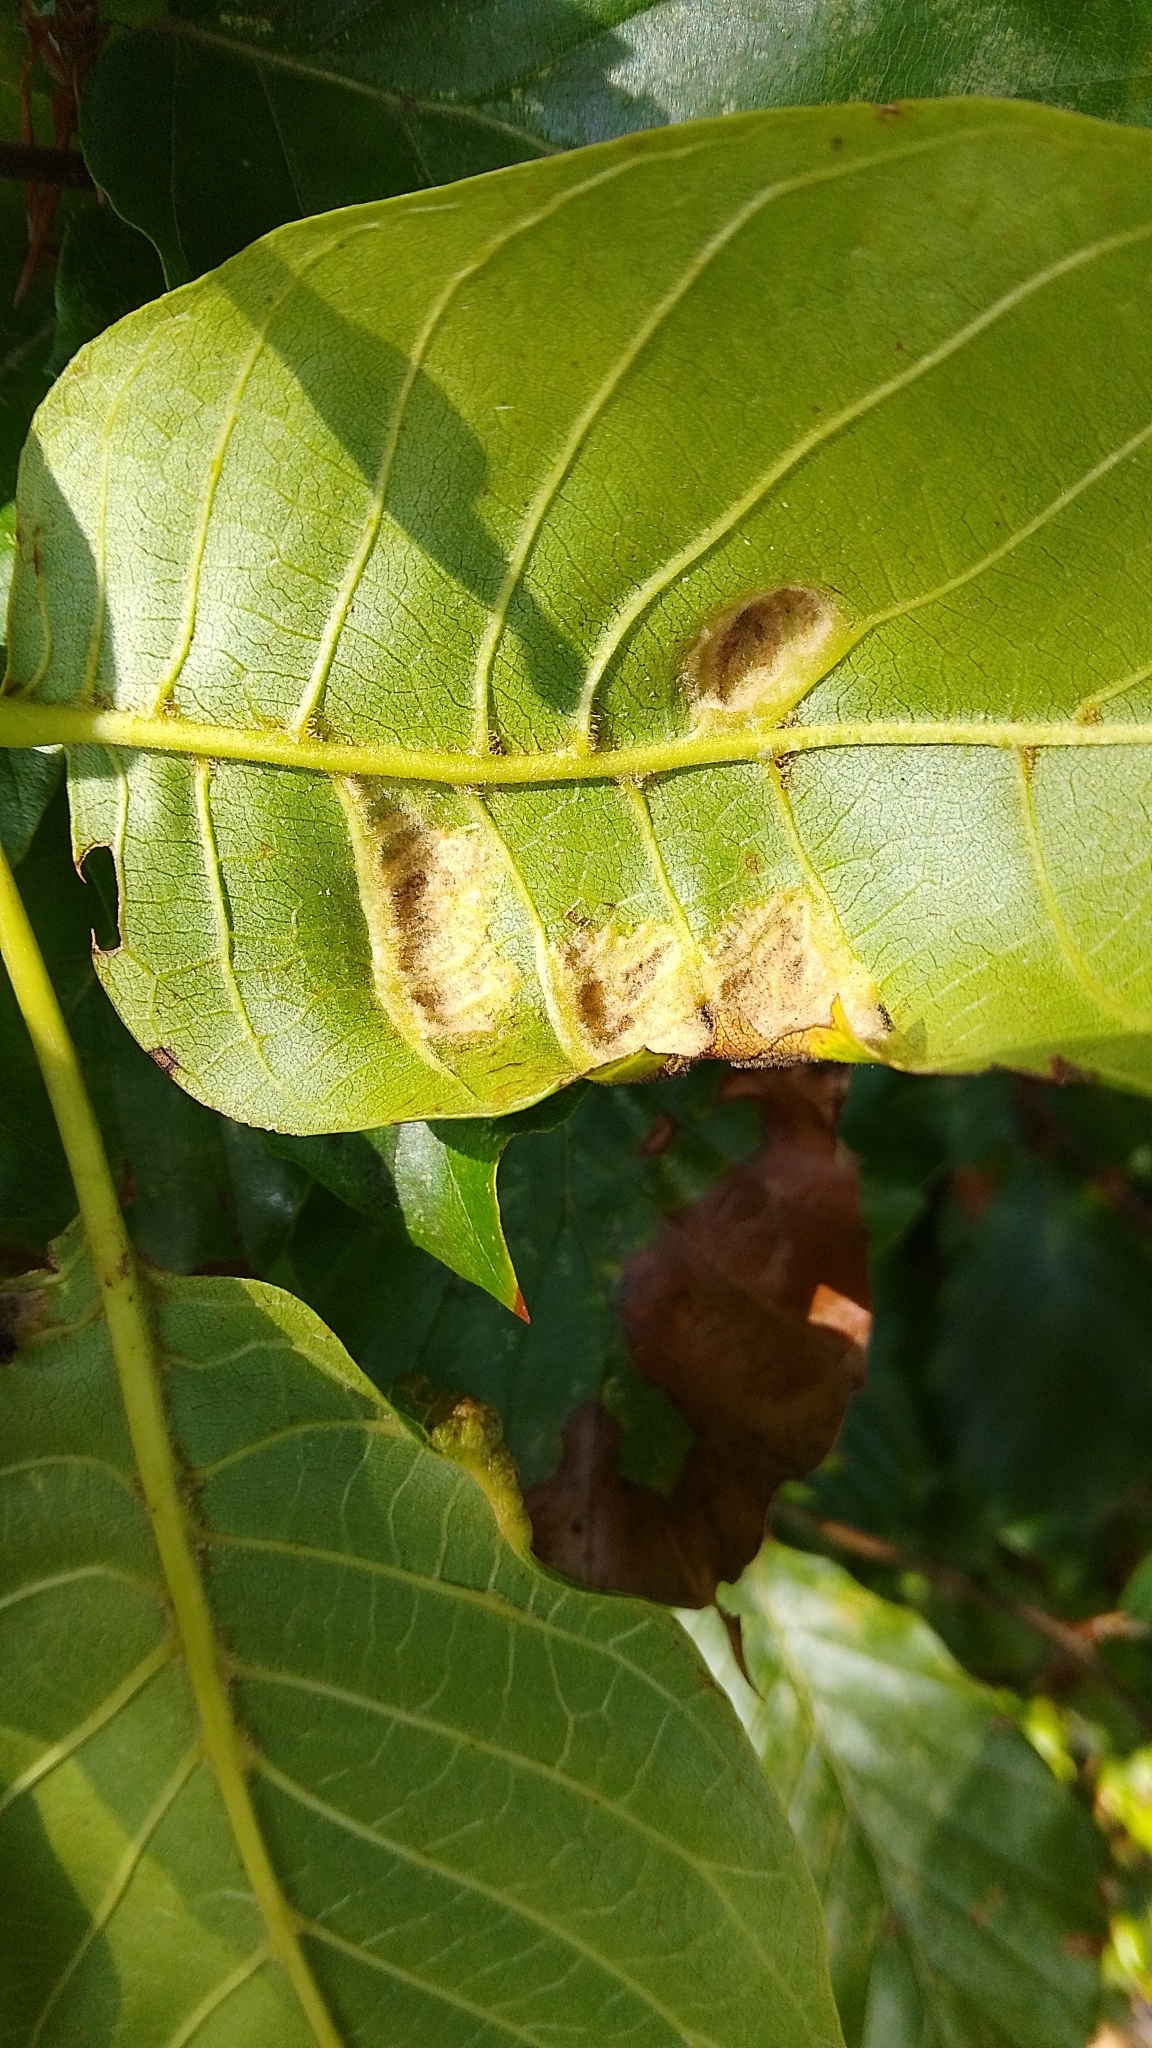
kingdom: Animalia
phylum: Arthropoda
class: Arachnida
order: Trombidiformes
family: Eriophyidae
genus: Aceria
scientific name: Aceria erinea
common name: Persian walnut erineum mite
